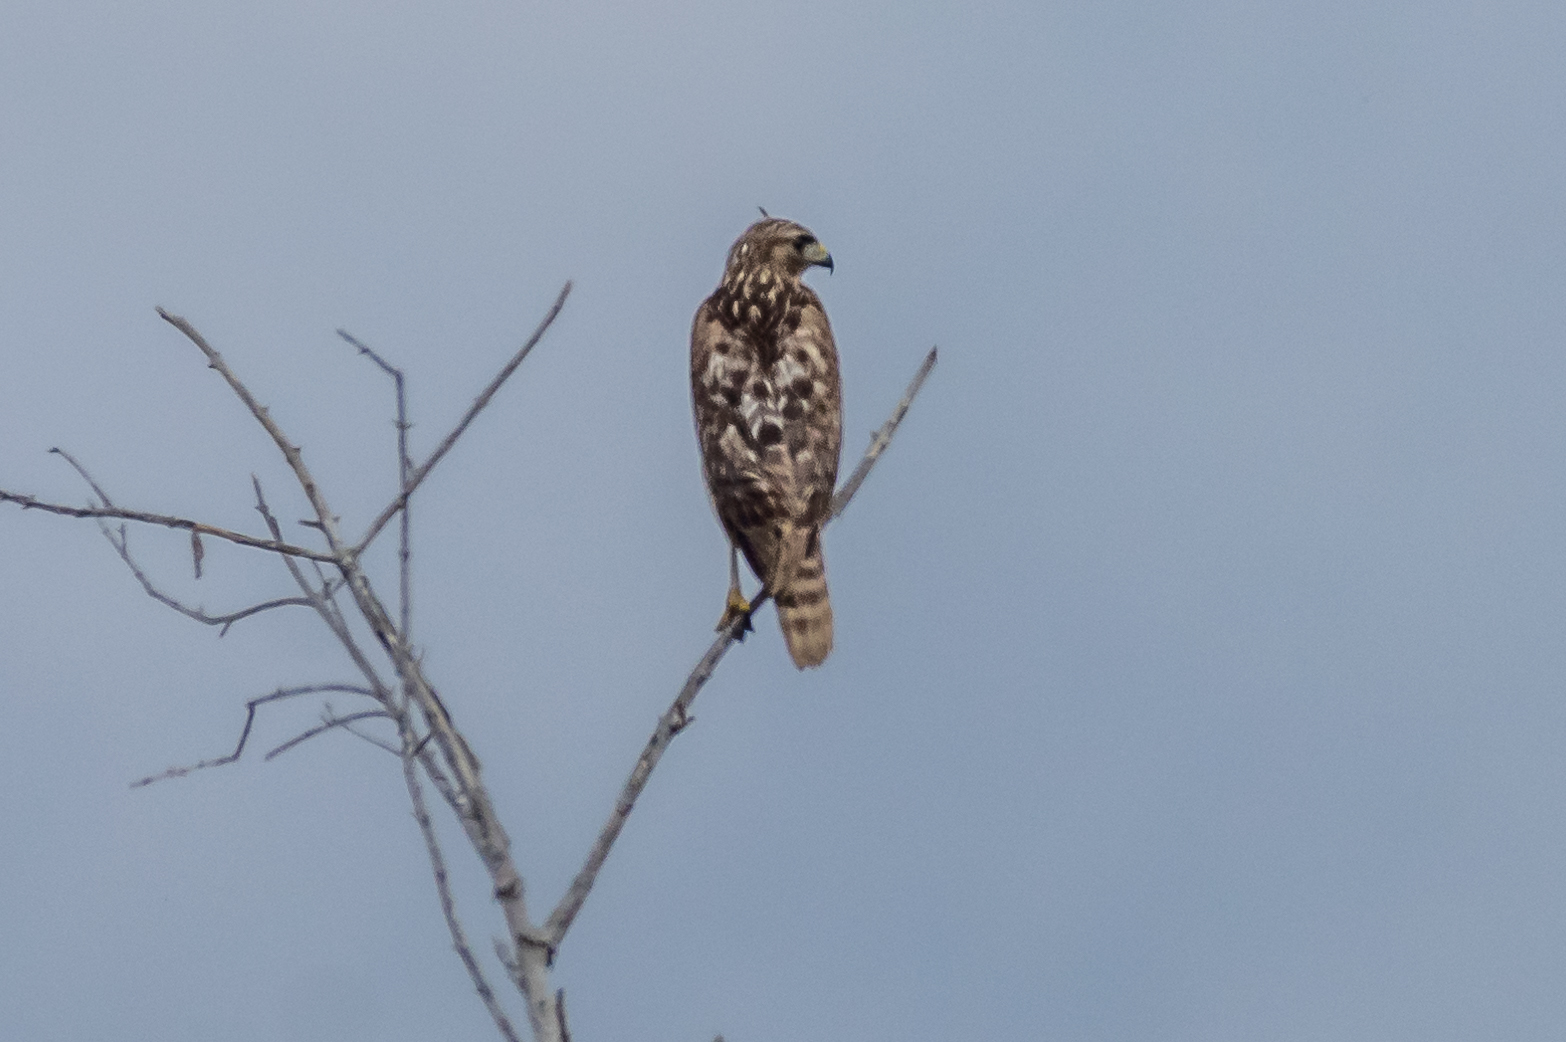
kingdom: Animalia
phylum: Chordata
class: Aves
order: Accipitriformes
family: Accipitridae
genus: Buteo
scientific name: Buteo lineatus
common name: Red-shouldered hawk
